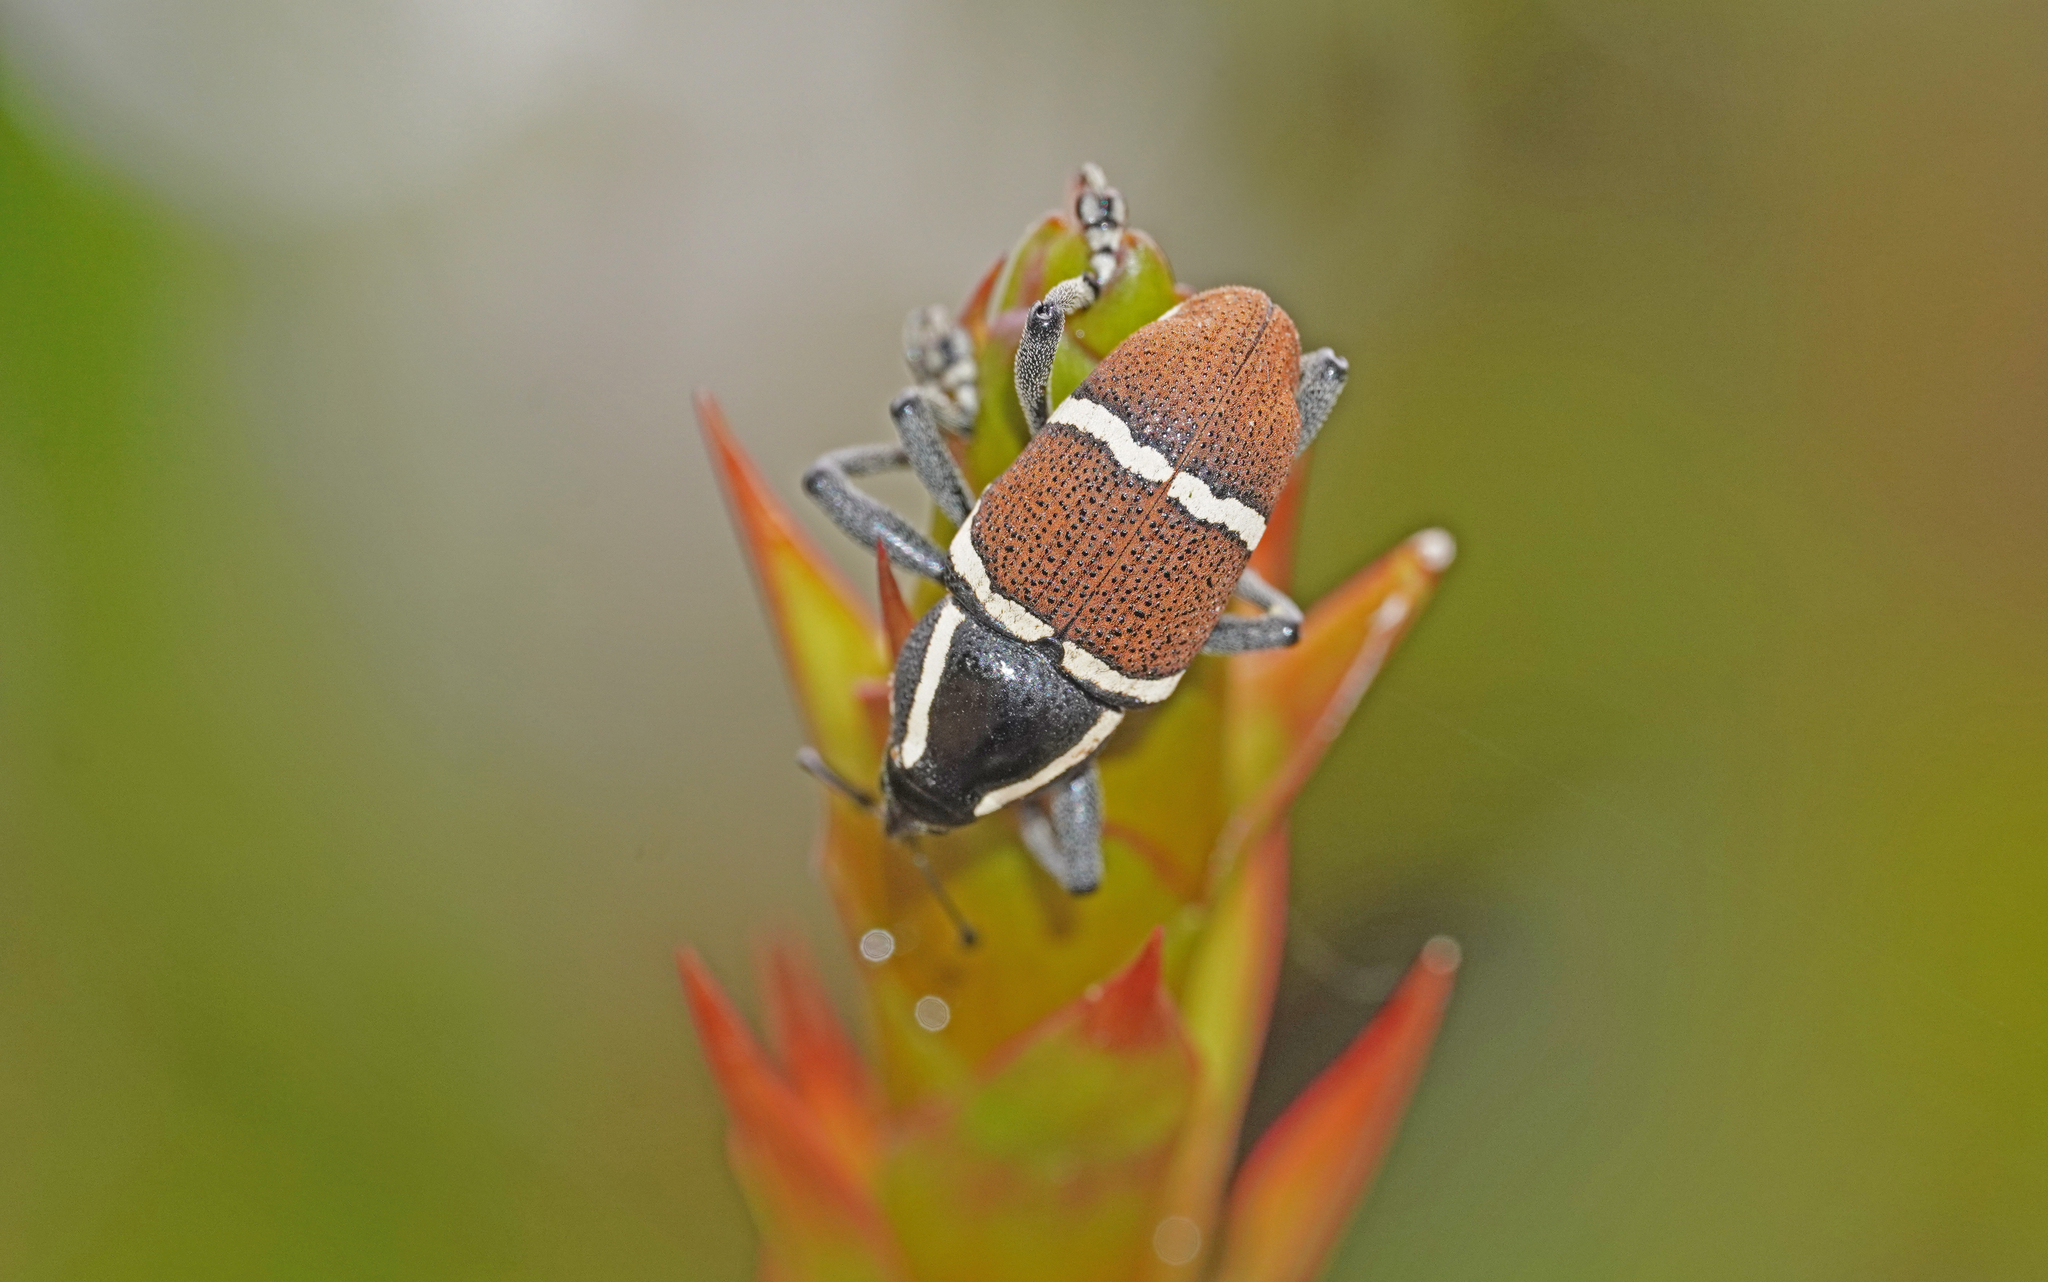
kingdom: Animalia
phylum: Arthropoda
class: Insecta
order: Coleoptera
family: Curculionidae
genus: Cholus
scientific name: Cholus niveodecoratus
